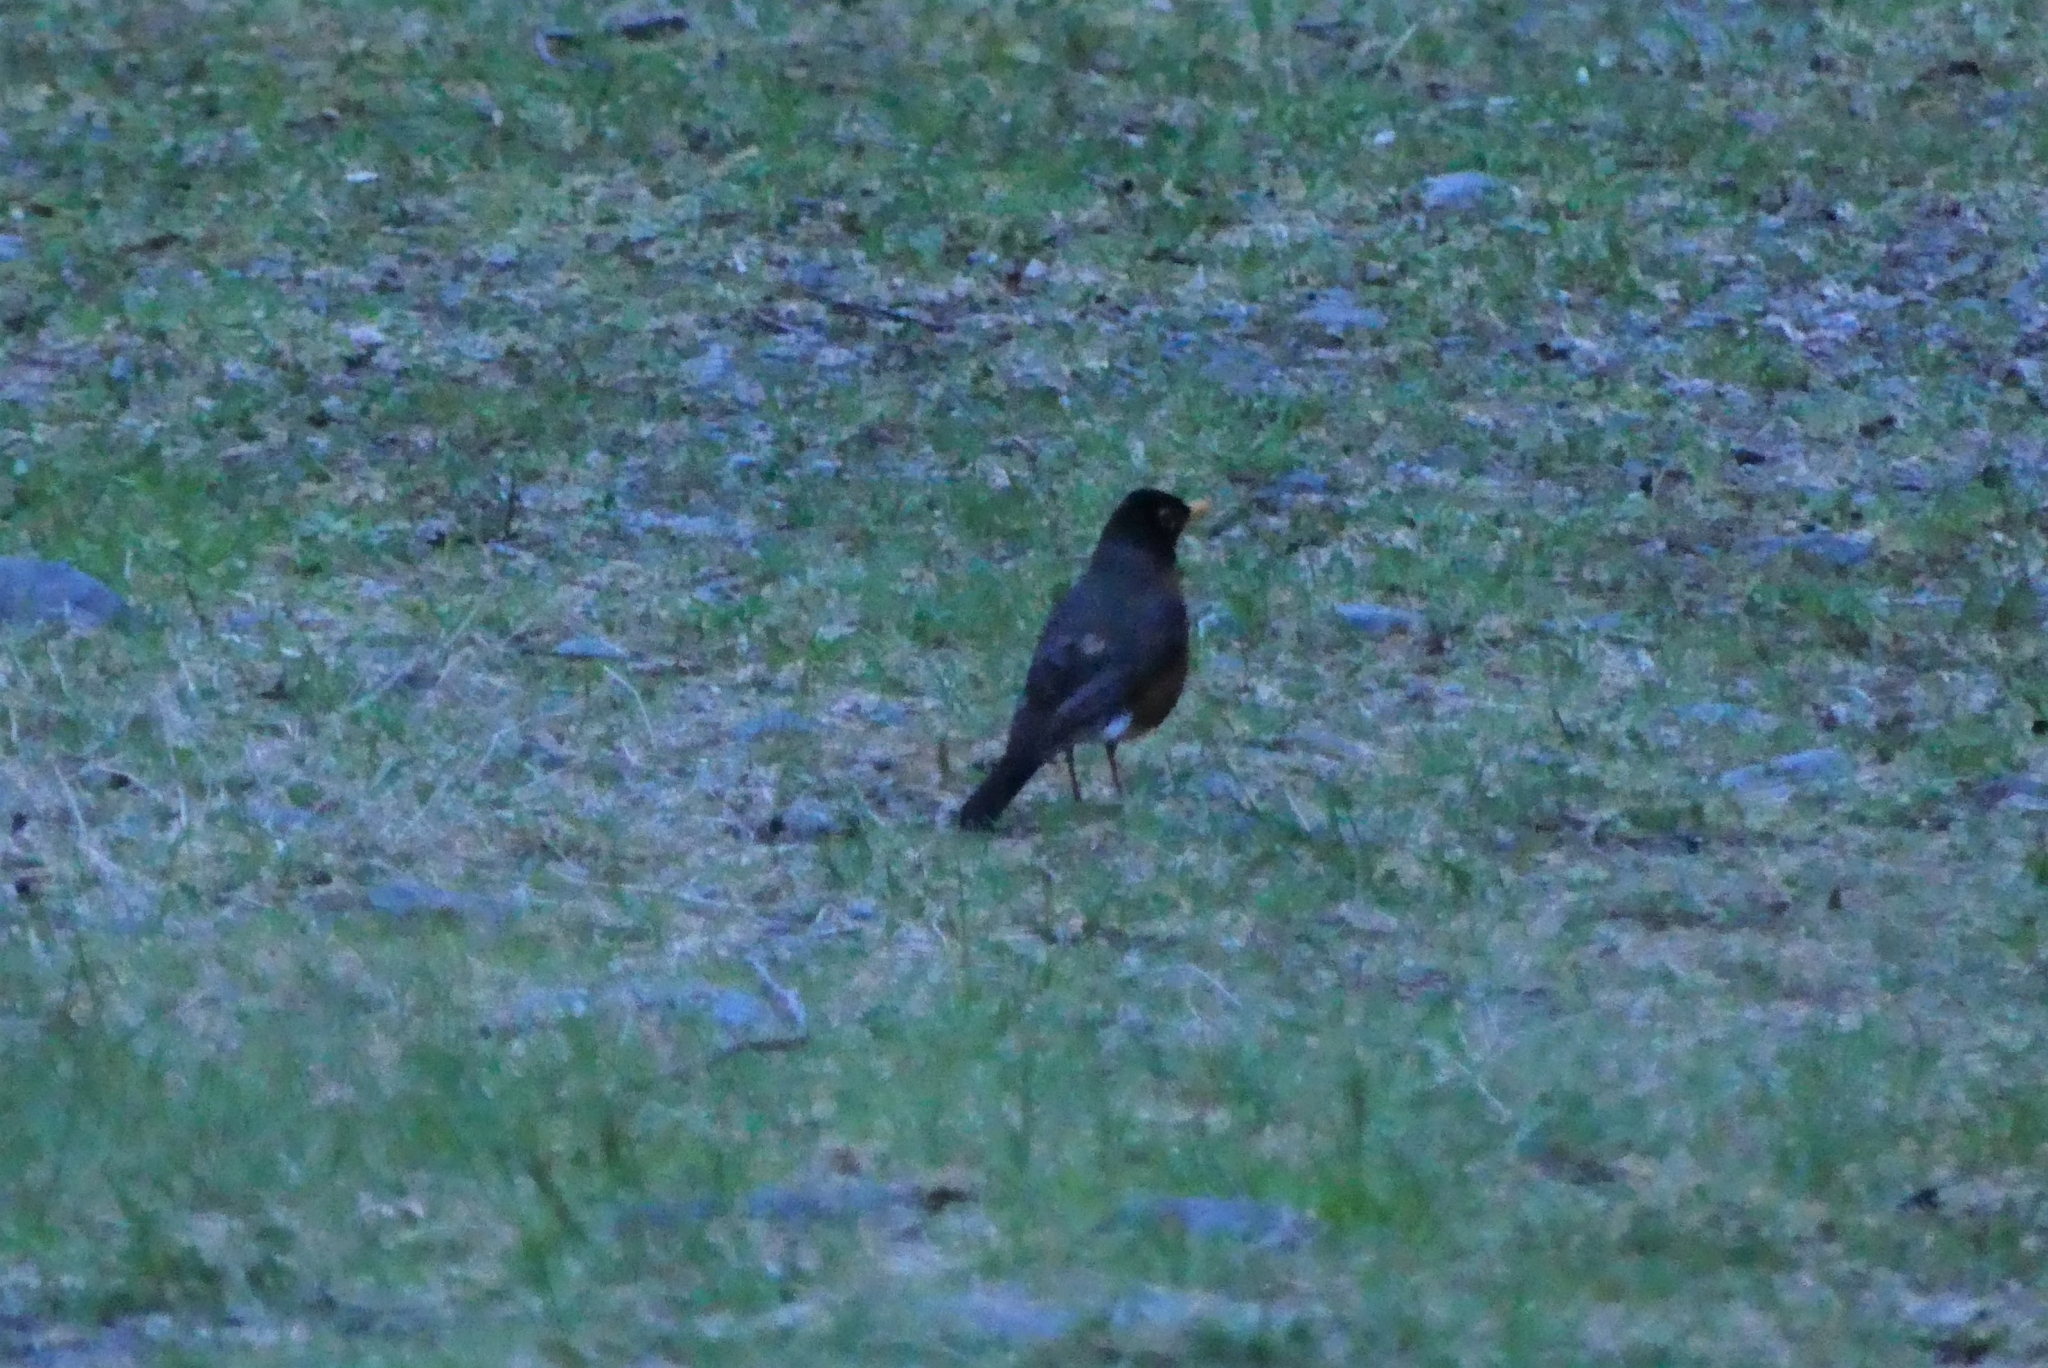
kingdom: Animalia
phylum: Chordata
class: Aves
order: Passeriformes
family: Turdidae
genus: Turdus
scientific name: Turdus migratorius
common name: American robin
